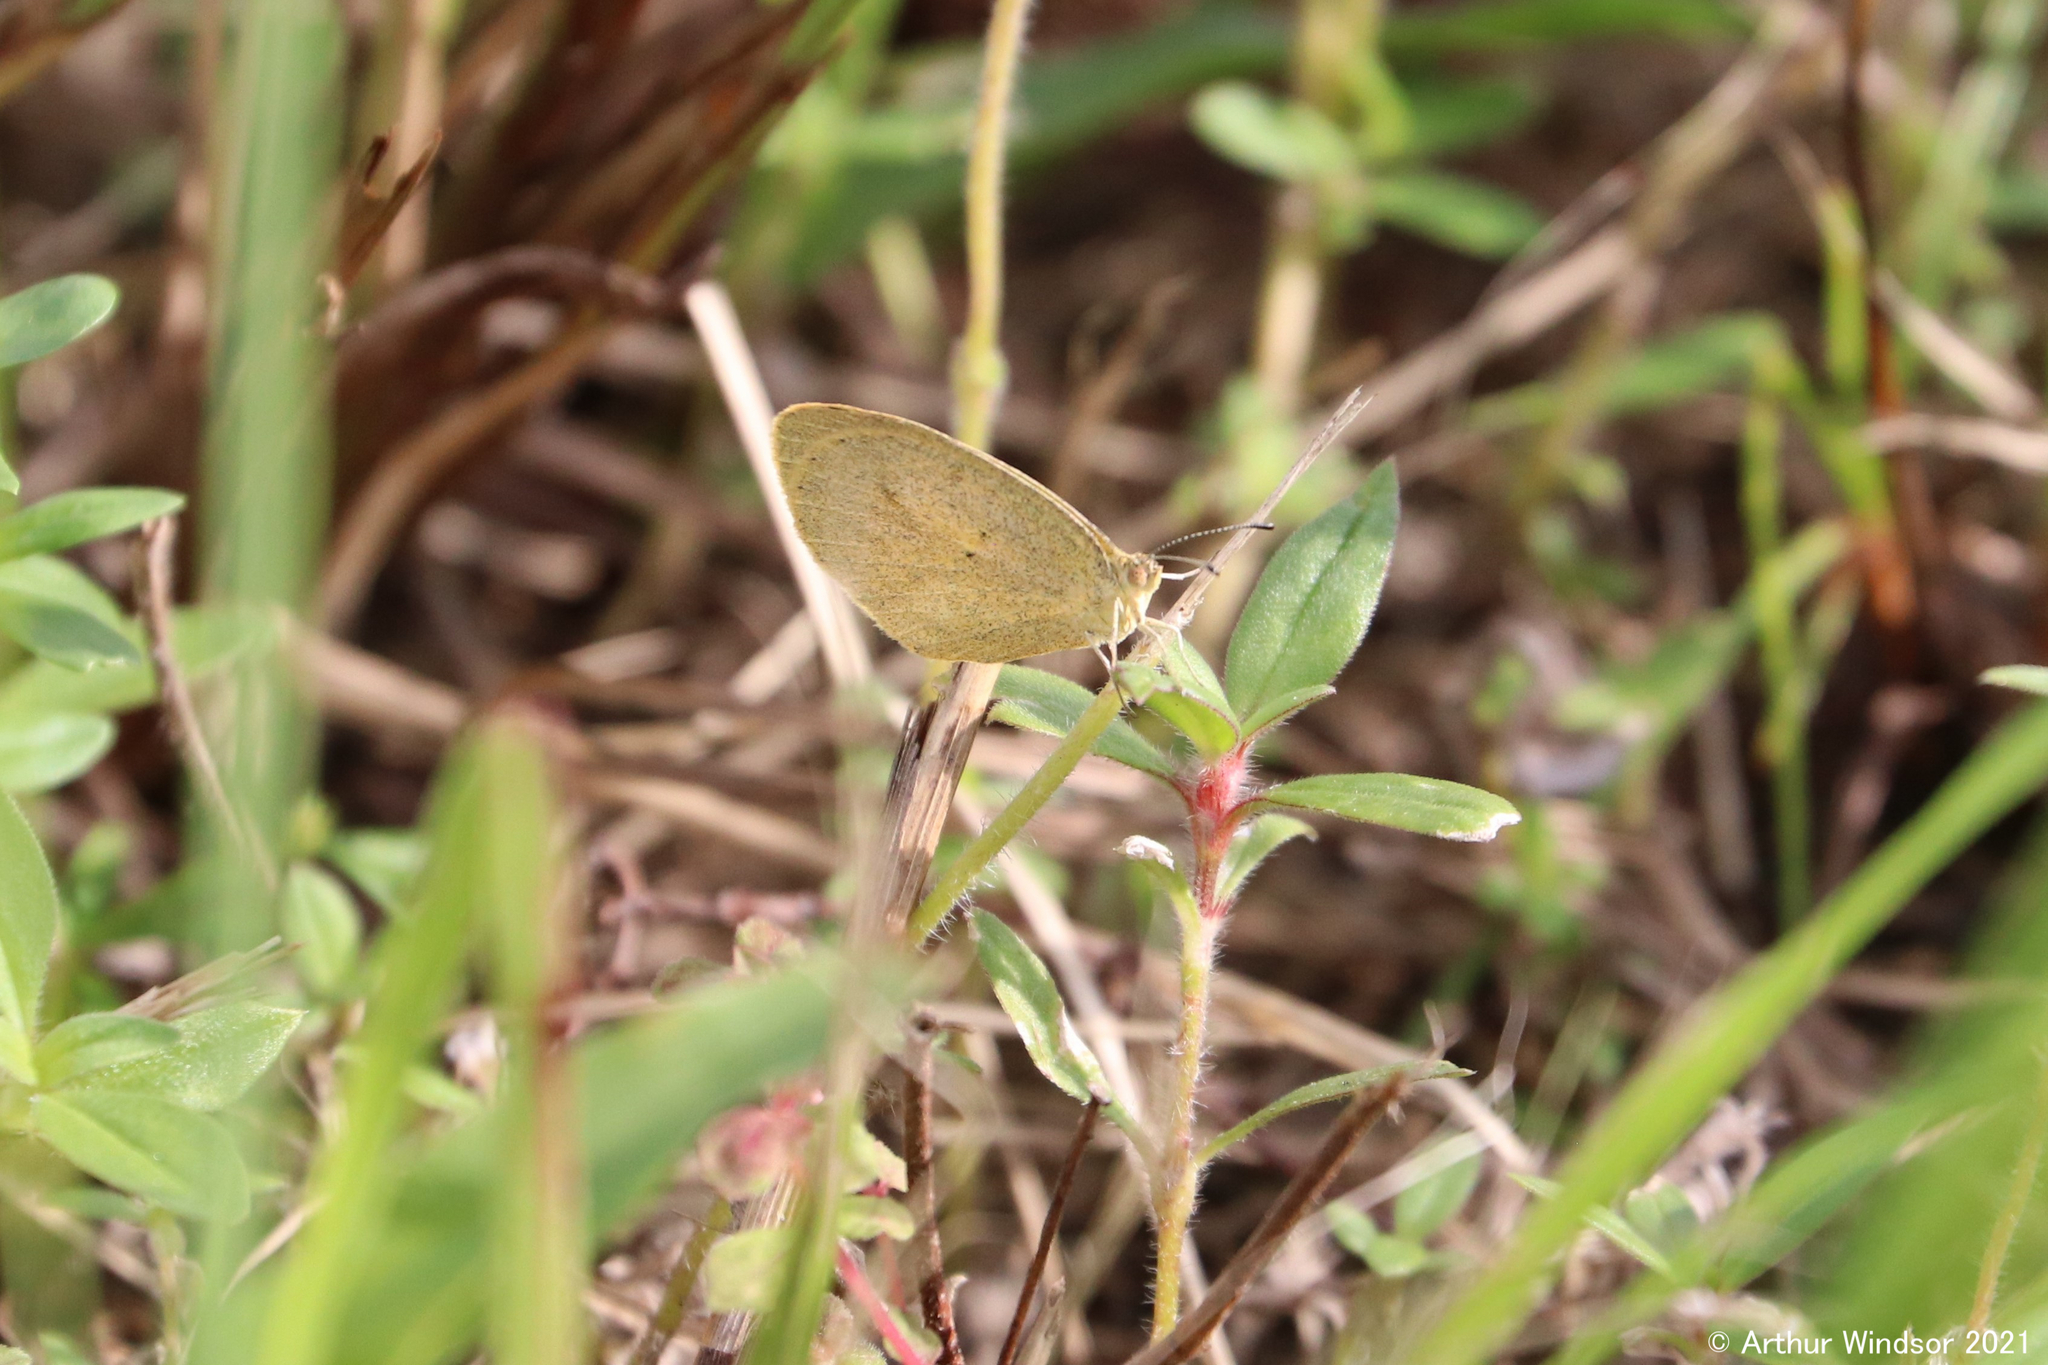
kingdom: Animalia
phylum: Arthropoda
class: Insecta
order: Lepidoptera
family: Pieridae
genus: Eurema
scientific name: Eurema daira
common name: Barred sulphur
